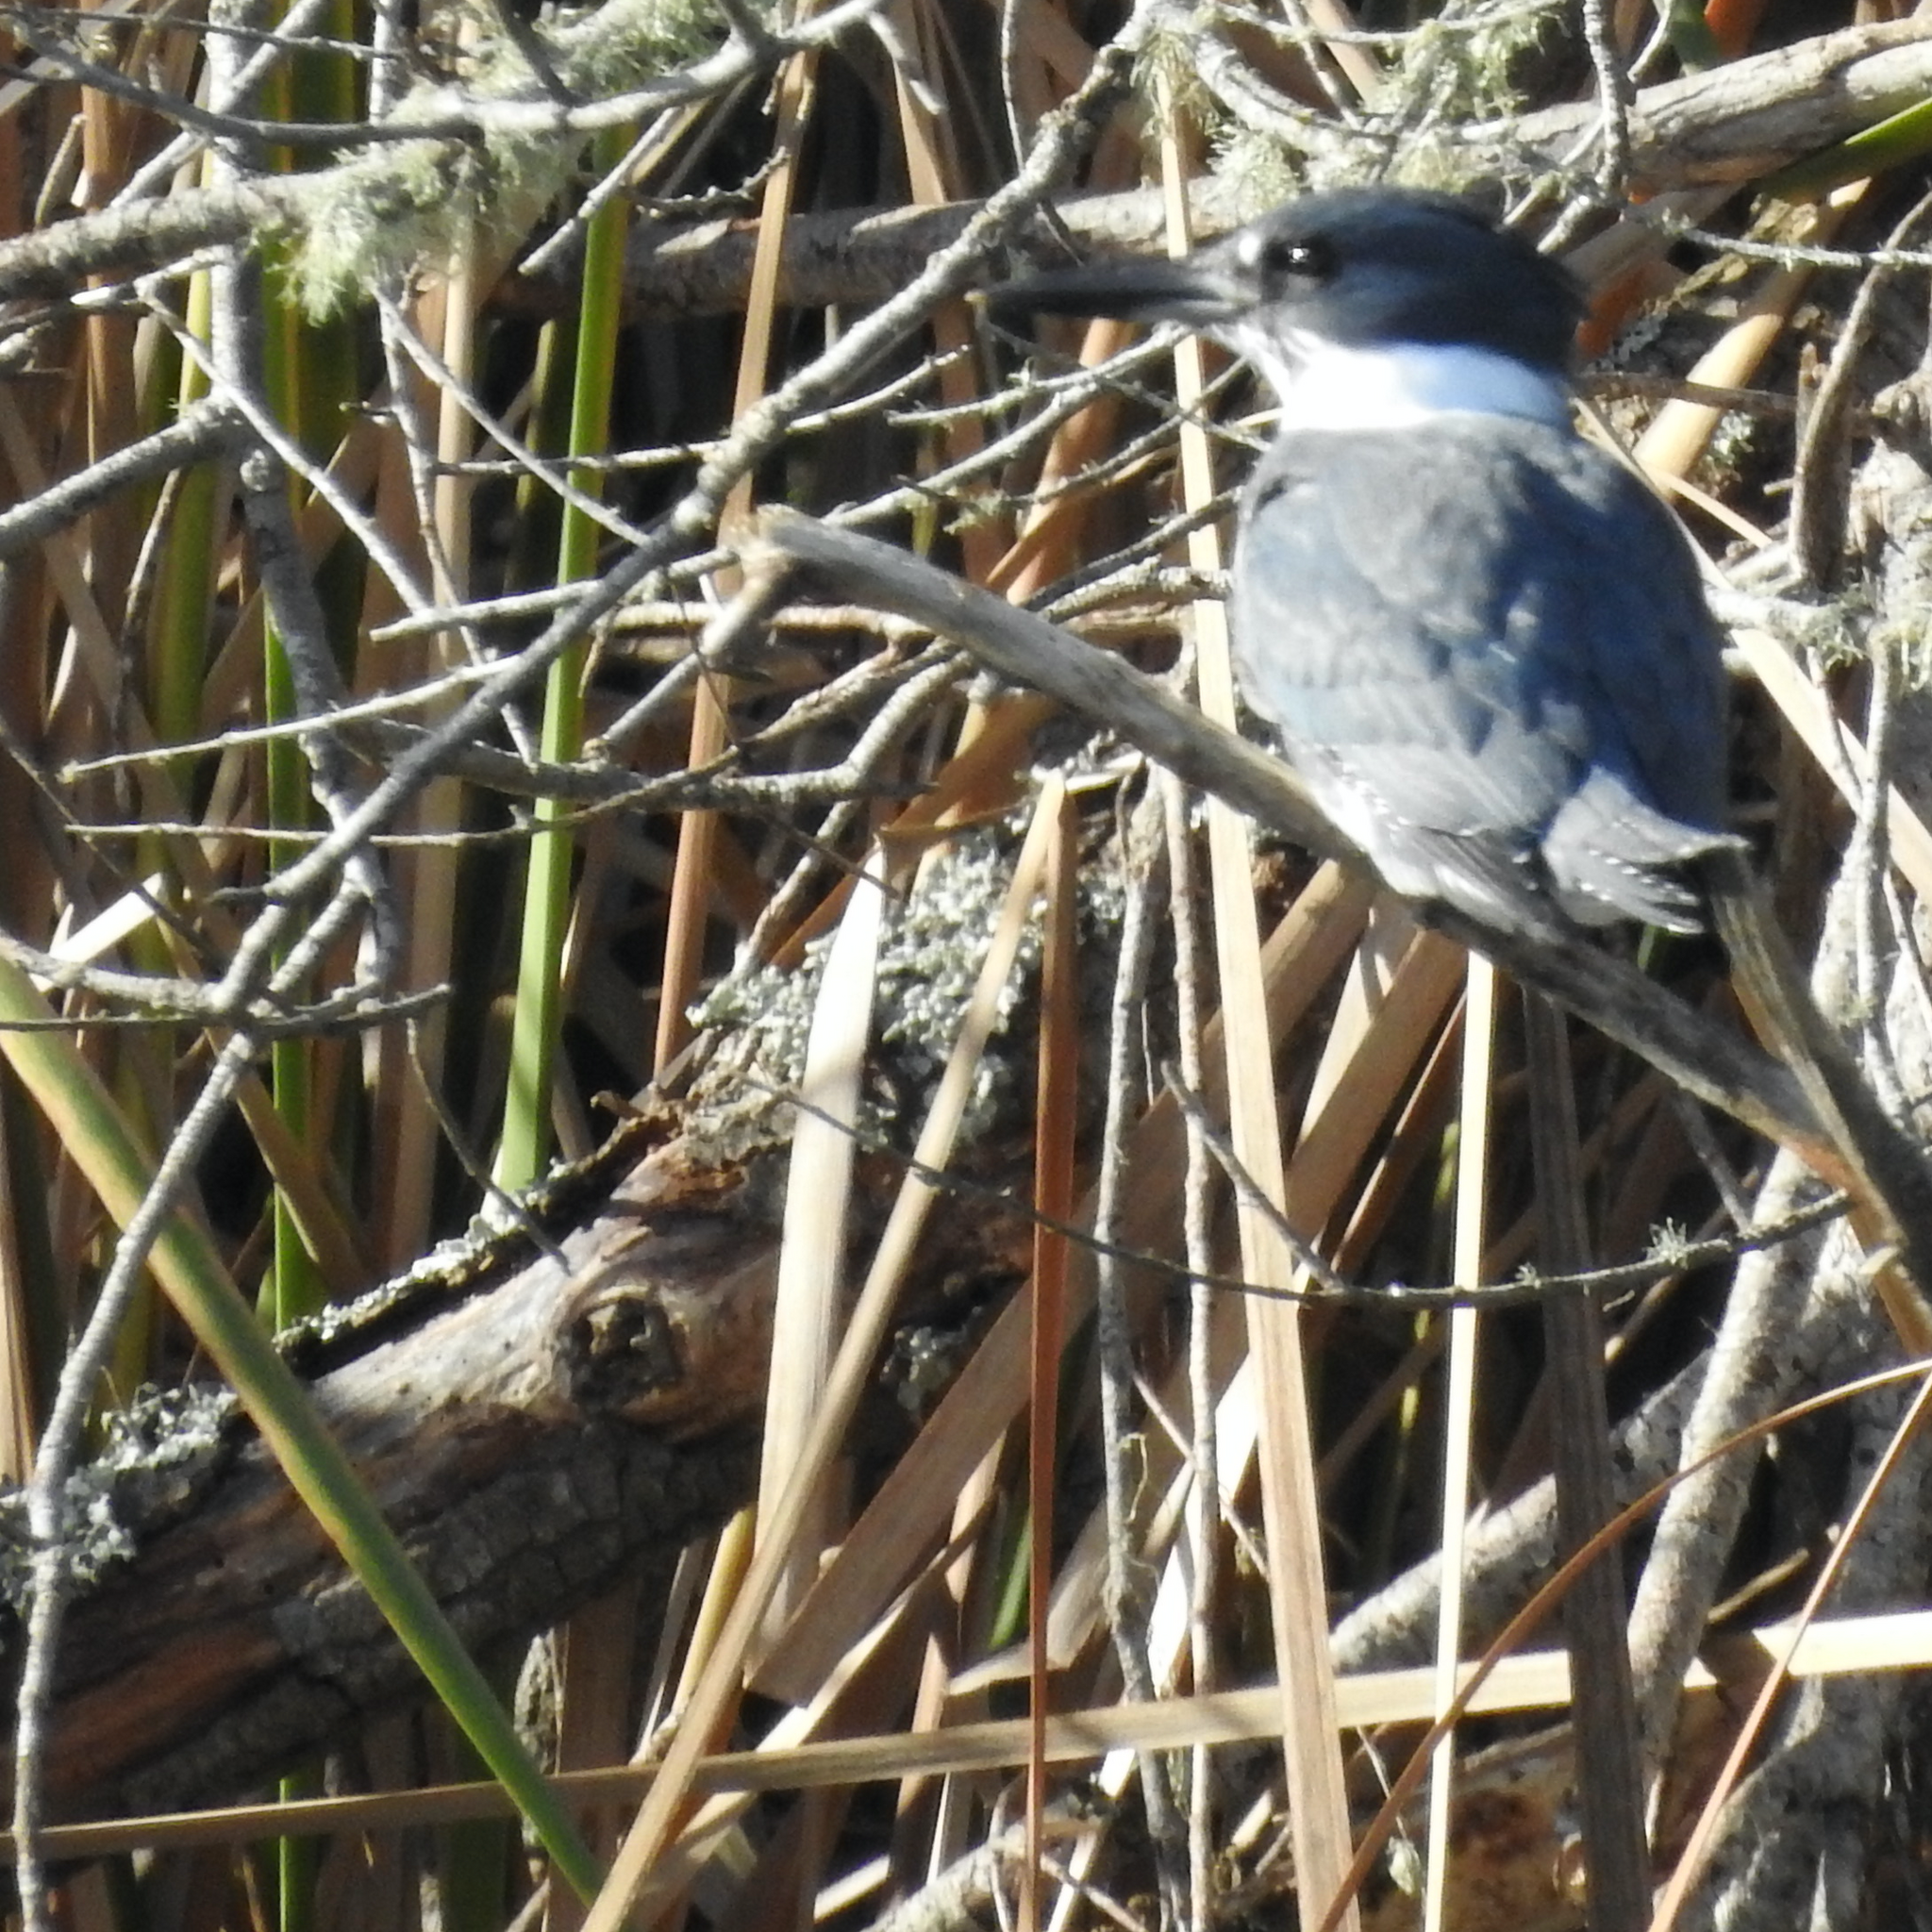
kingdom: Animalia
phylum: Chordata
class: Aves
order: Coraciiformes
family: Alcedinidae
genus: Megaceryle
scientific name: Megaceryle alcyon
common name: Belted kingfisher
